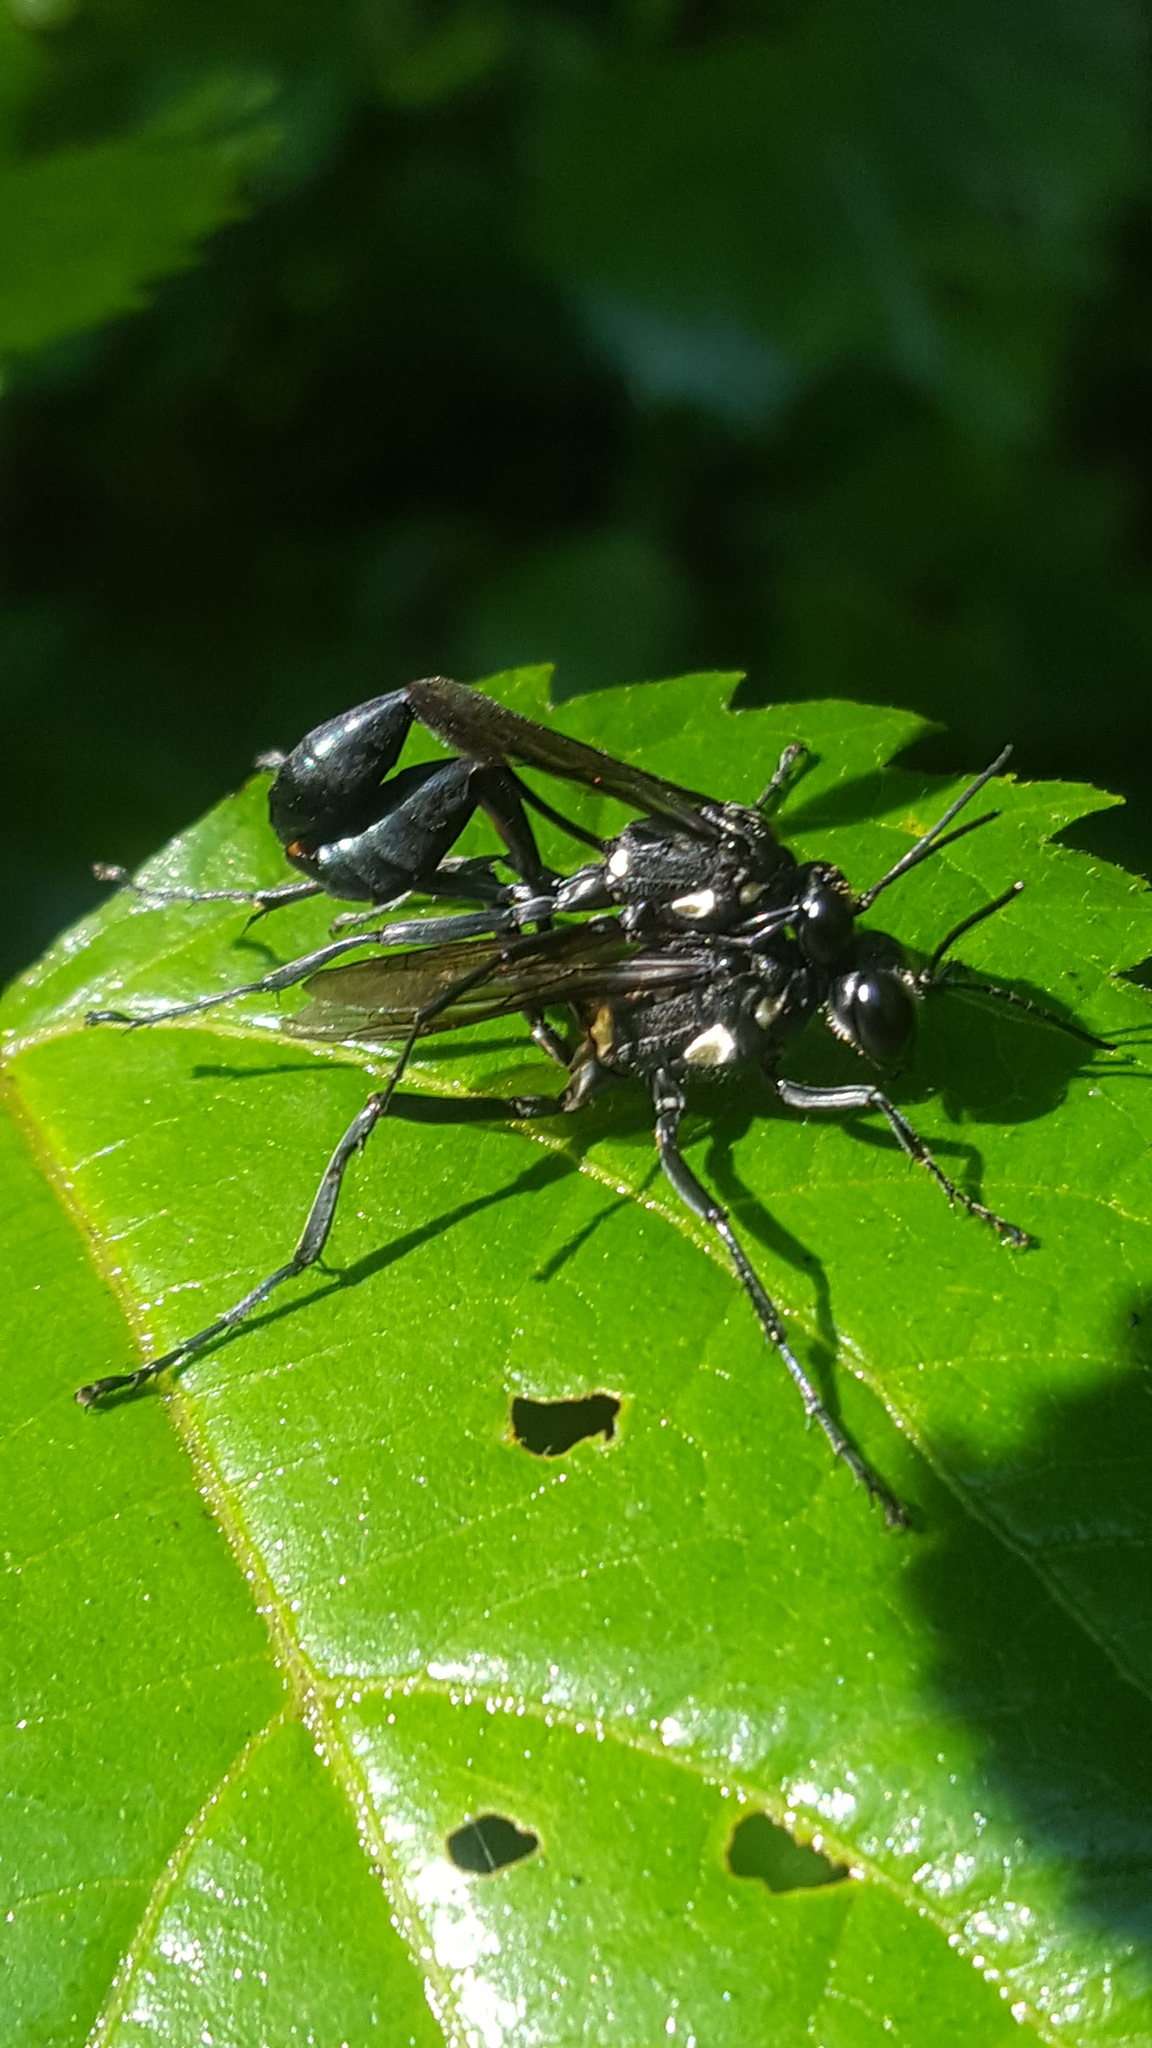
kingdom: Animalia
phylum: Arthropoda
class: Insecta
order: Hymenoptera
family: Sphecidae
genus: Eremnophila
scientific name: Eremnophila aureonotata
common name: Gold-marked thread-waisted wasp
